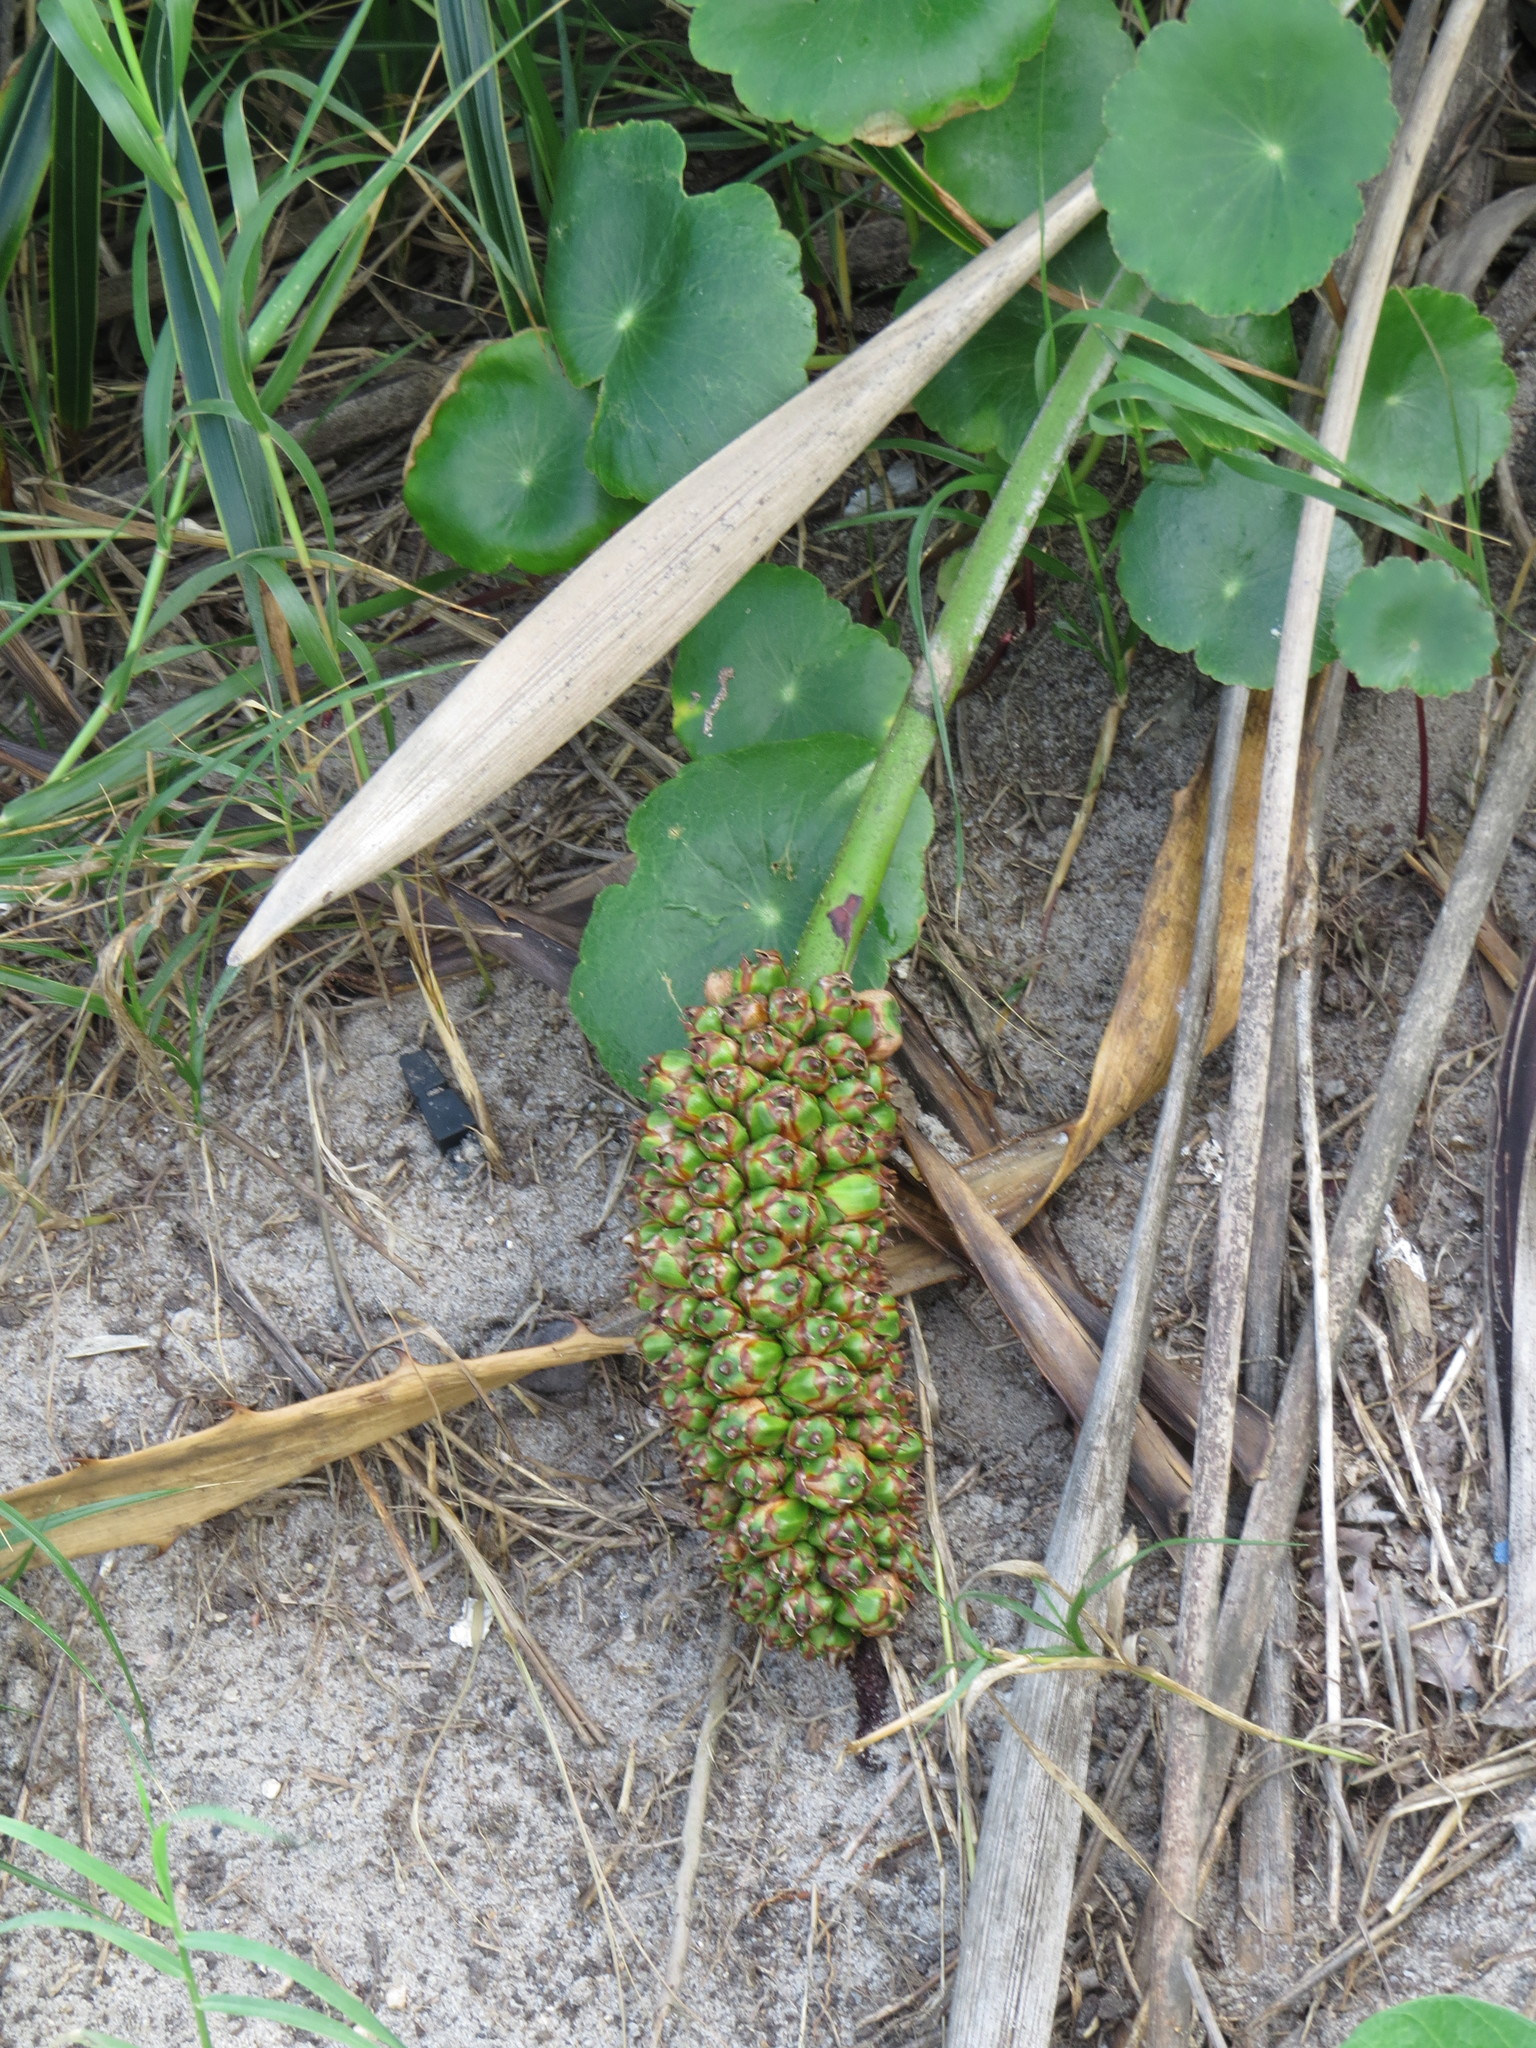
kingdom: Plantae
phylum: Tracheophyta
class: Liliopsida
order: Arecales
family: Arecaceae
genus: Allagoptera
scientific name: Allagoptera arenaria
